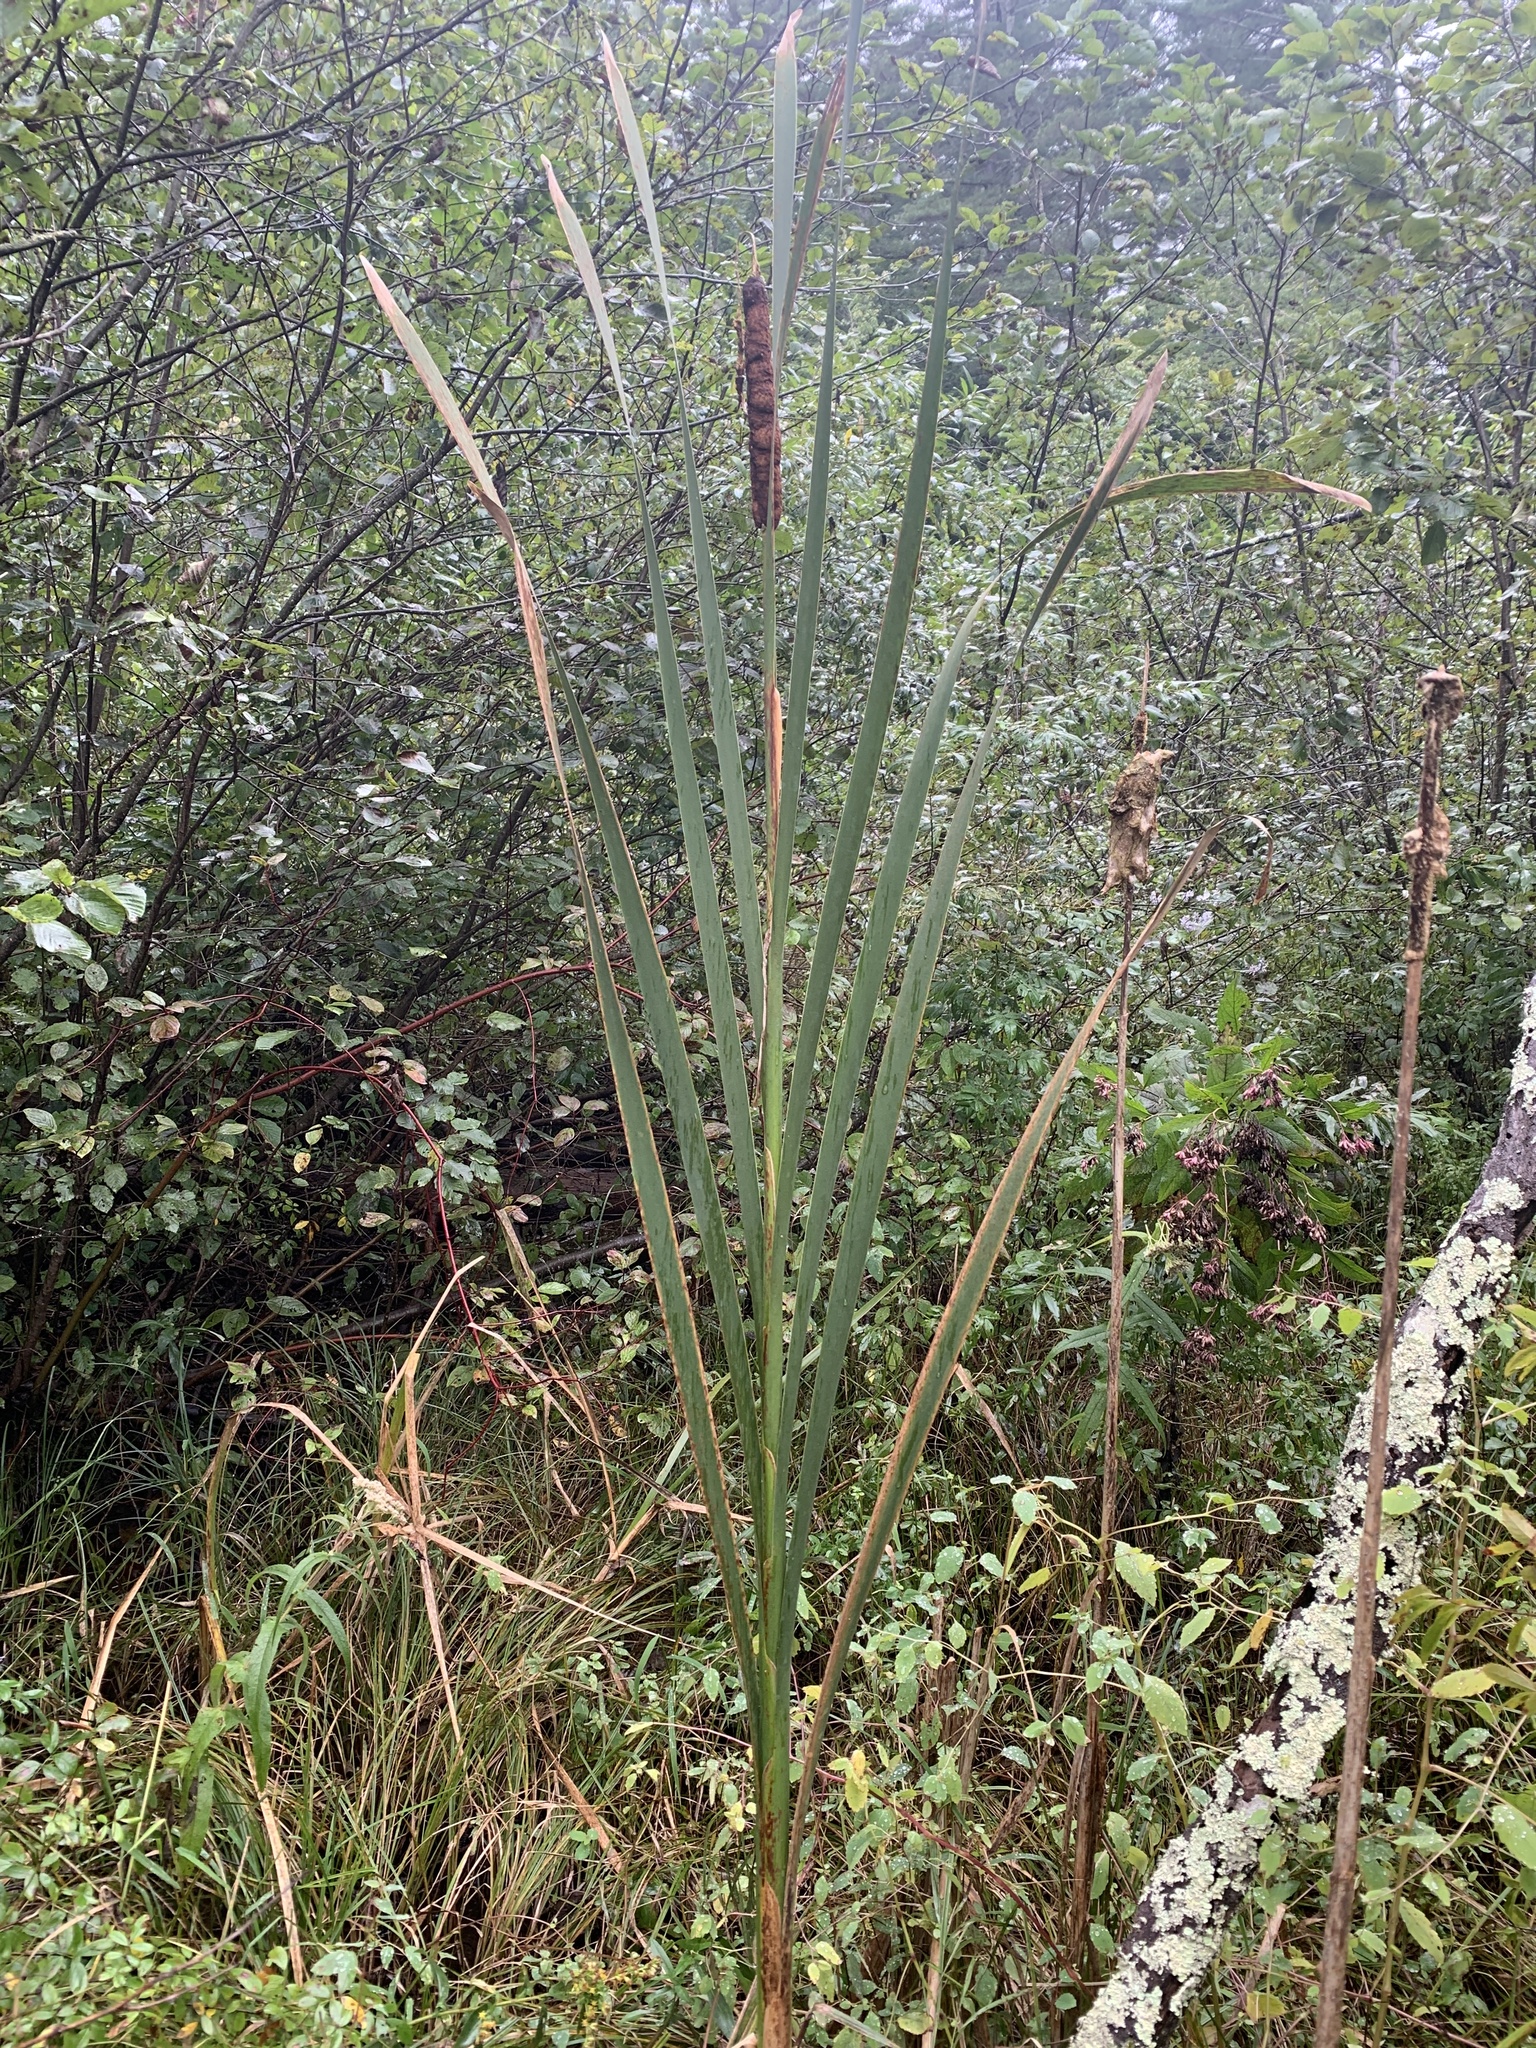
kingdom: Plantae
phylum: Tracheophyta
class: Liliopsida
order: Poales
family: Typhaceae
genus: Typha
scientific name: Typha latifolia
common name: Broadleaf cattail
